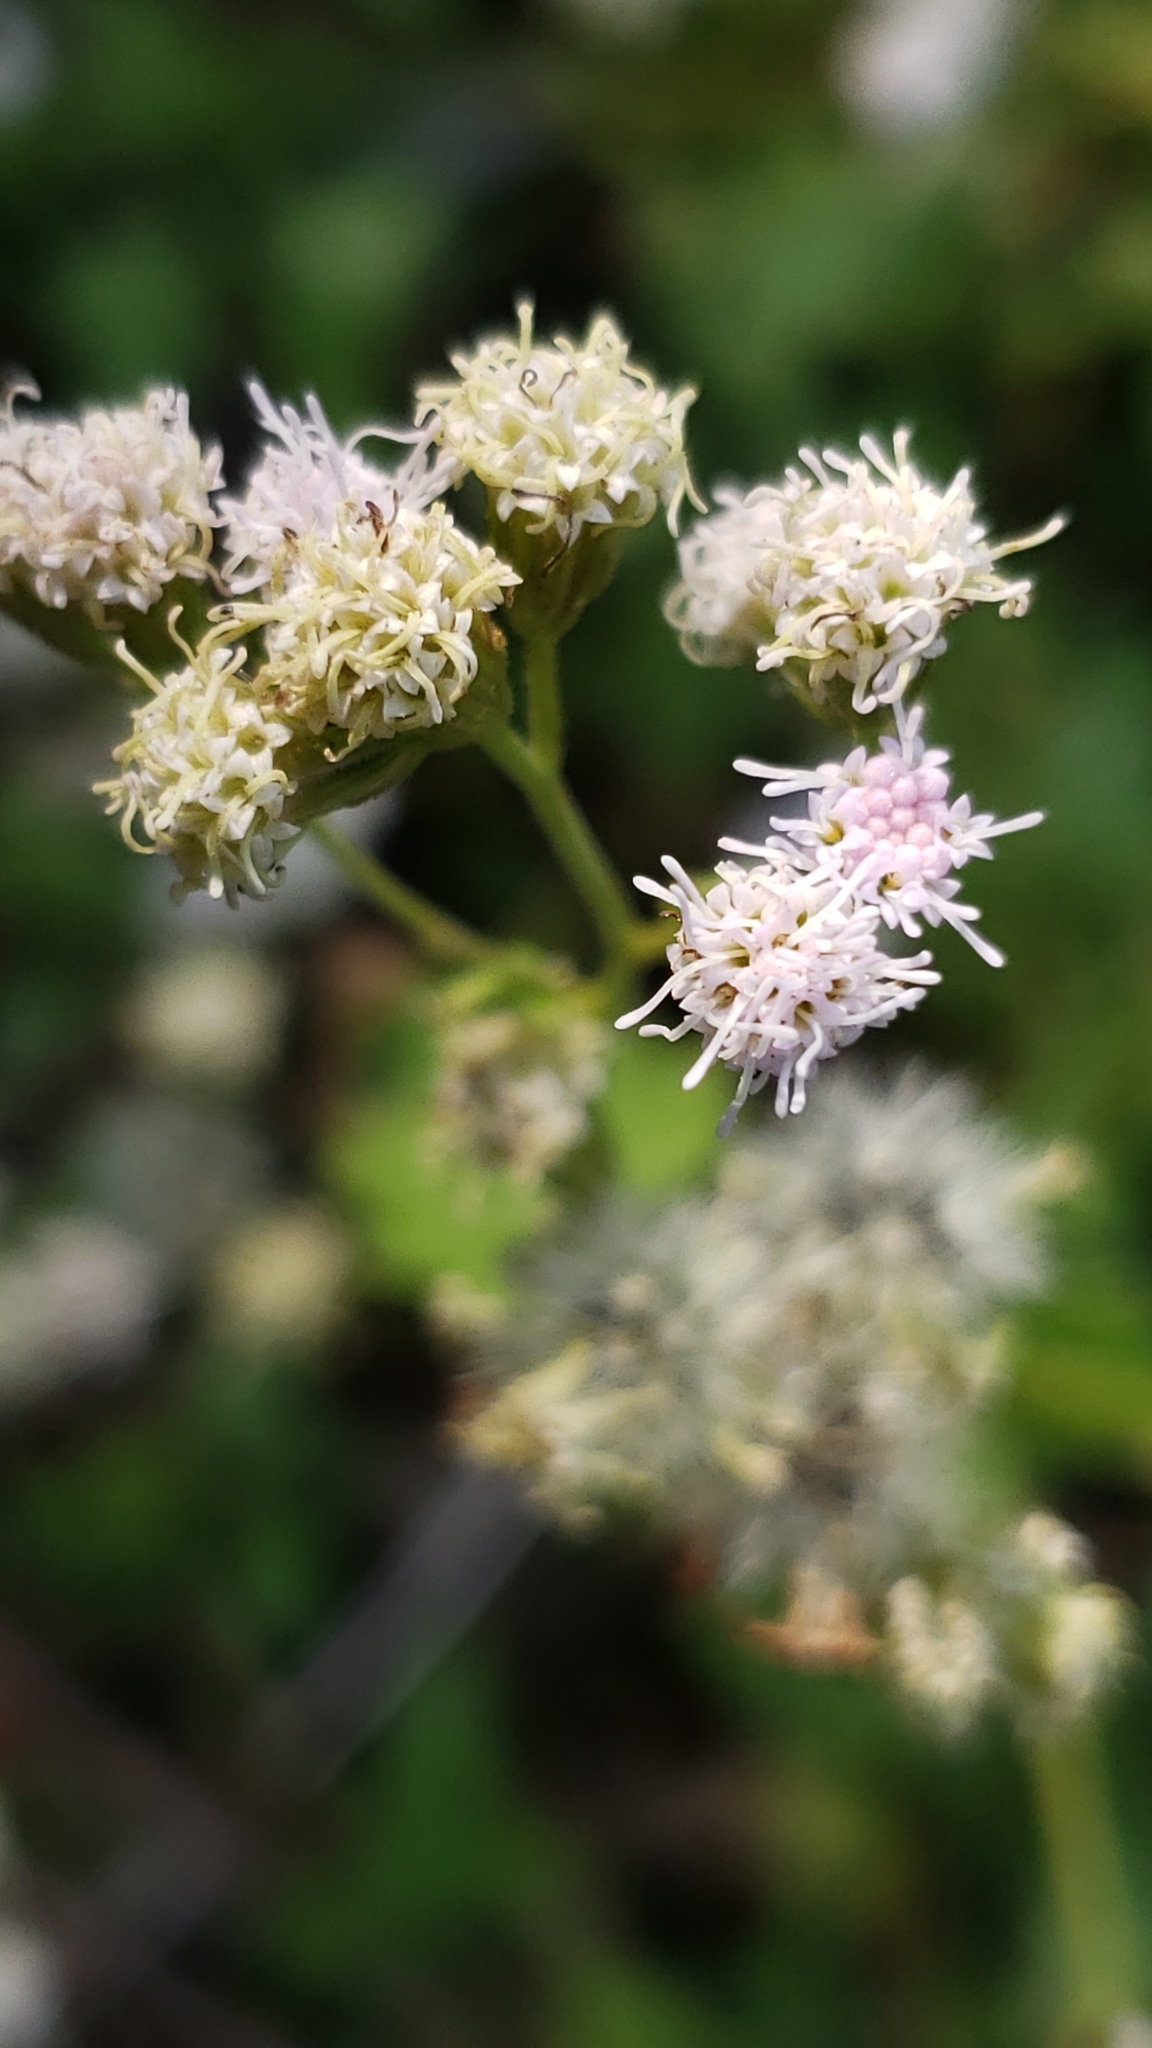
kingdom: Plantae
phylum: Tracheophyta
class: Magnoliopsida
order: Asterales
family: Asteraceae
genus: Fleischmannia
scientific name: Fleischmannia incarnata
